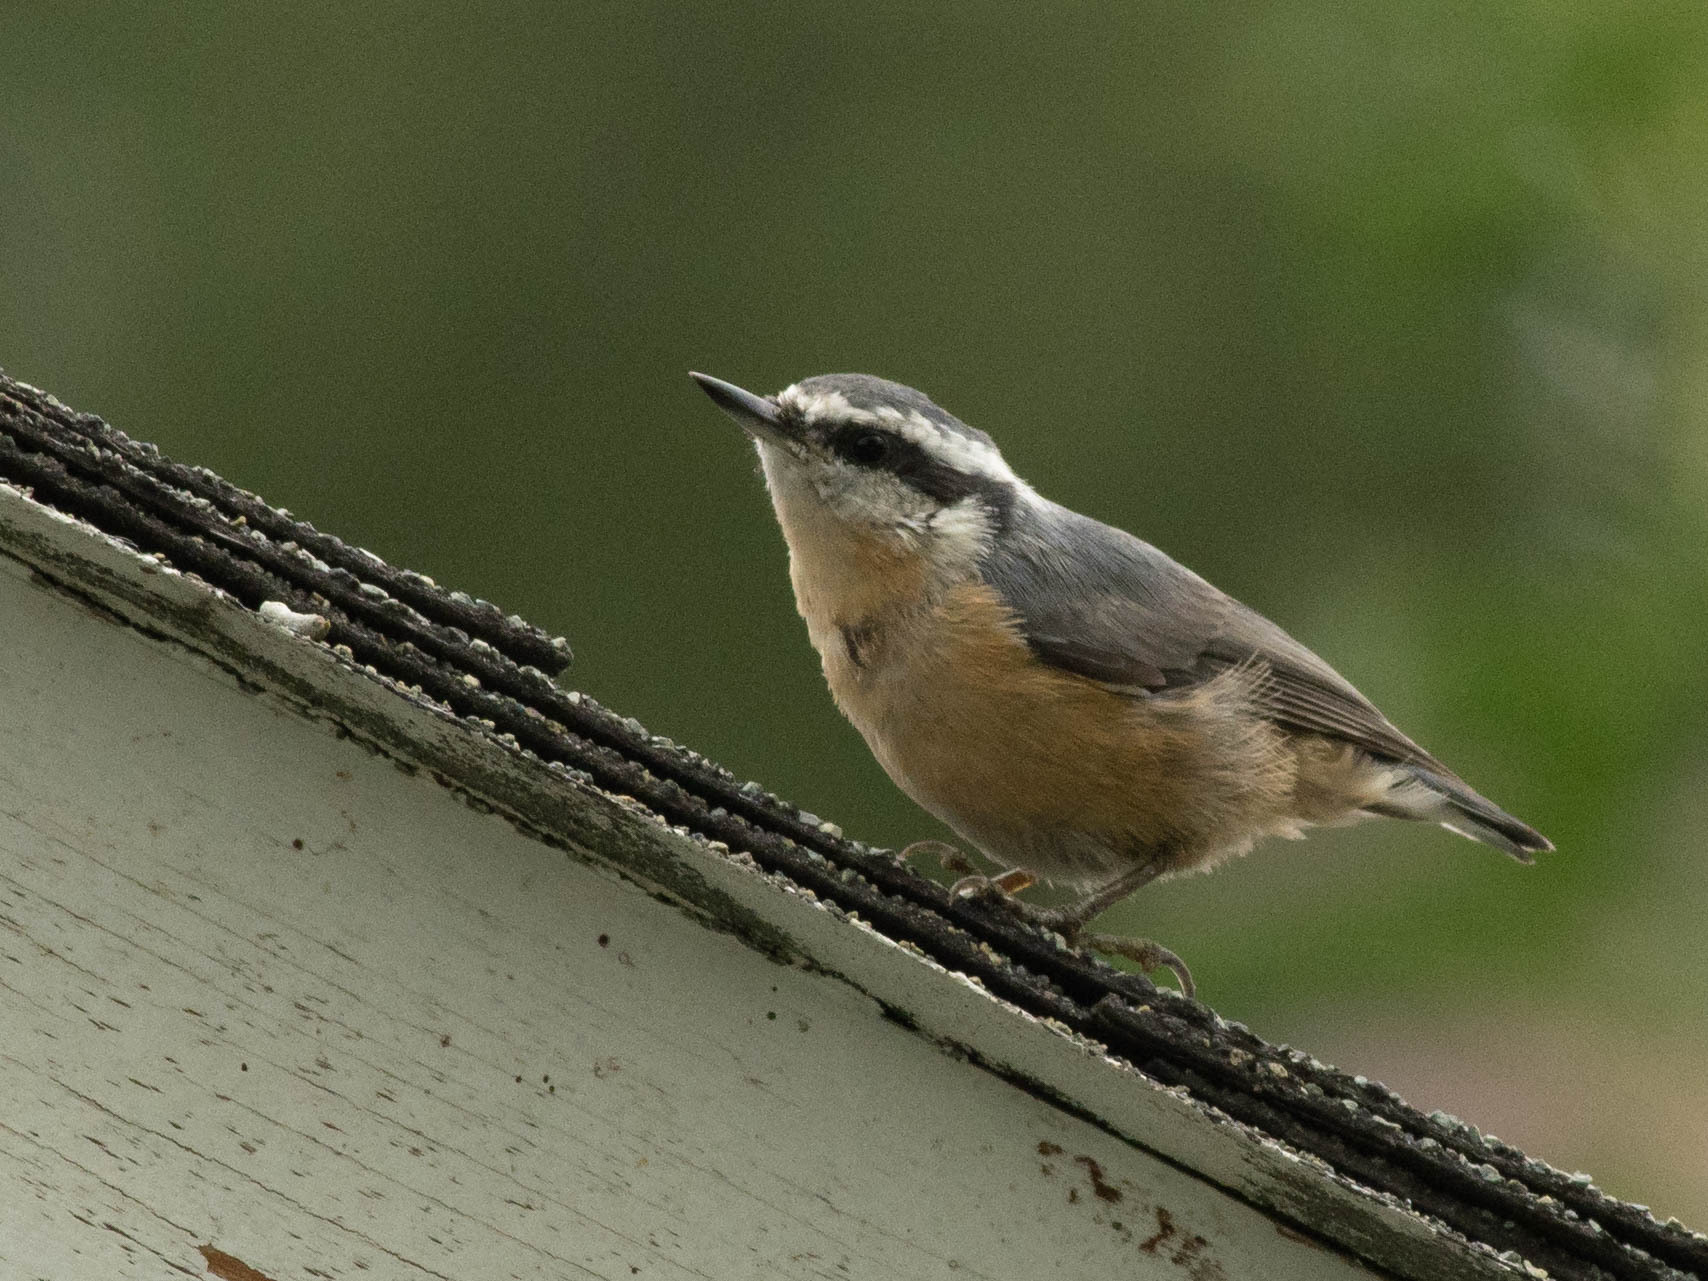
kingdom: Animalia
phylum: Chordata
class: Aves
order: Passeriformes
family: Sittidae
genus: Sitta
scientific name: Sitta canadensis
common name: Red-breasted nuthatch
